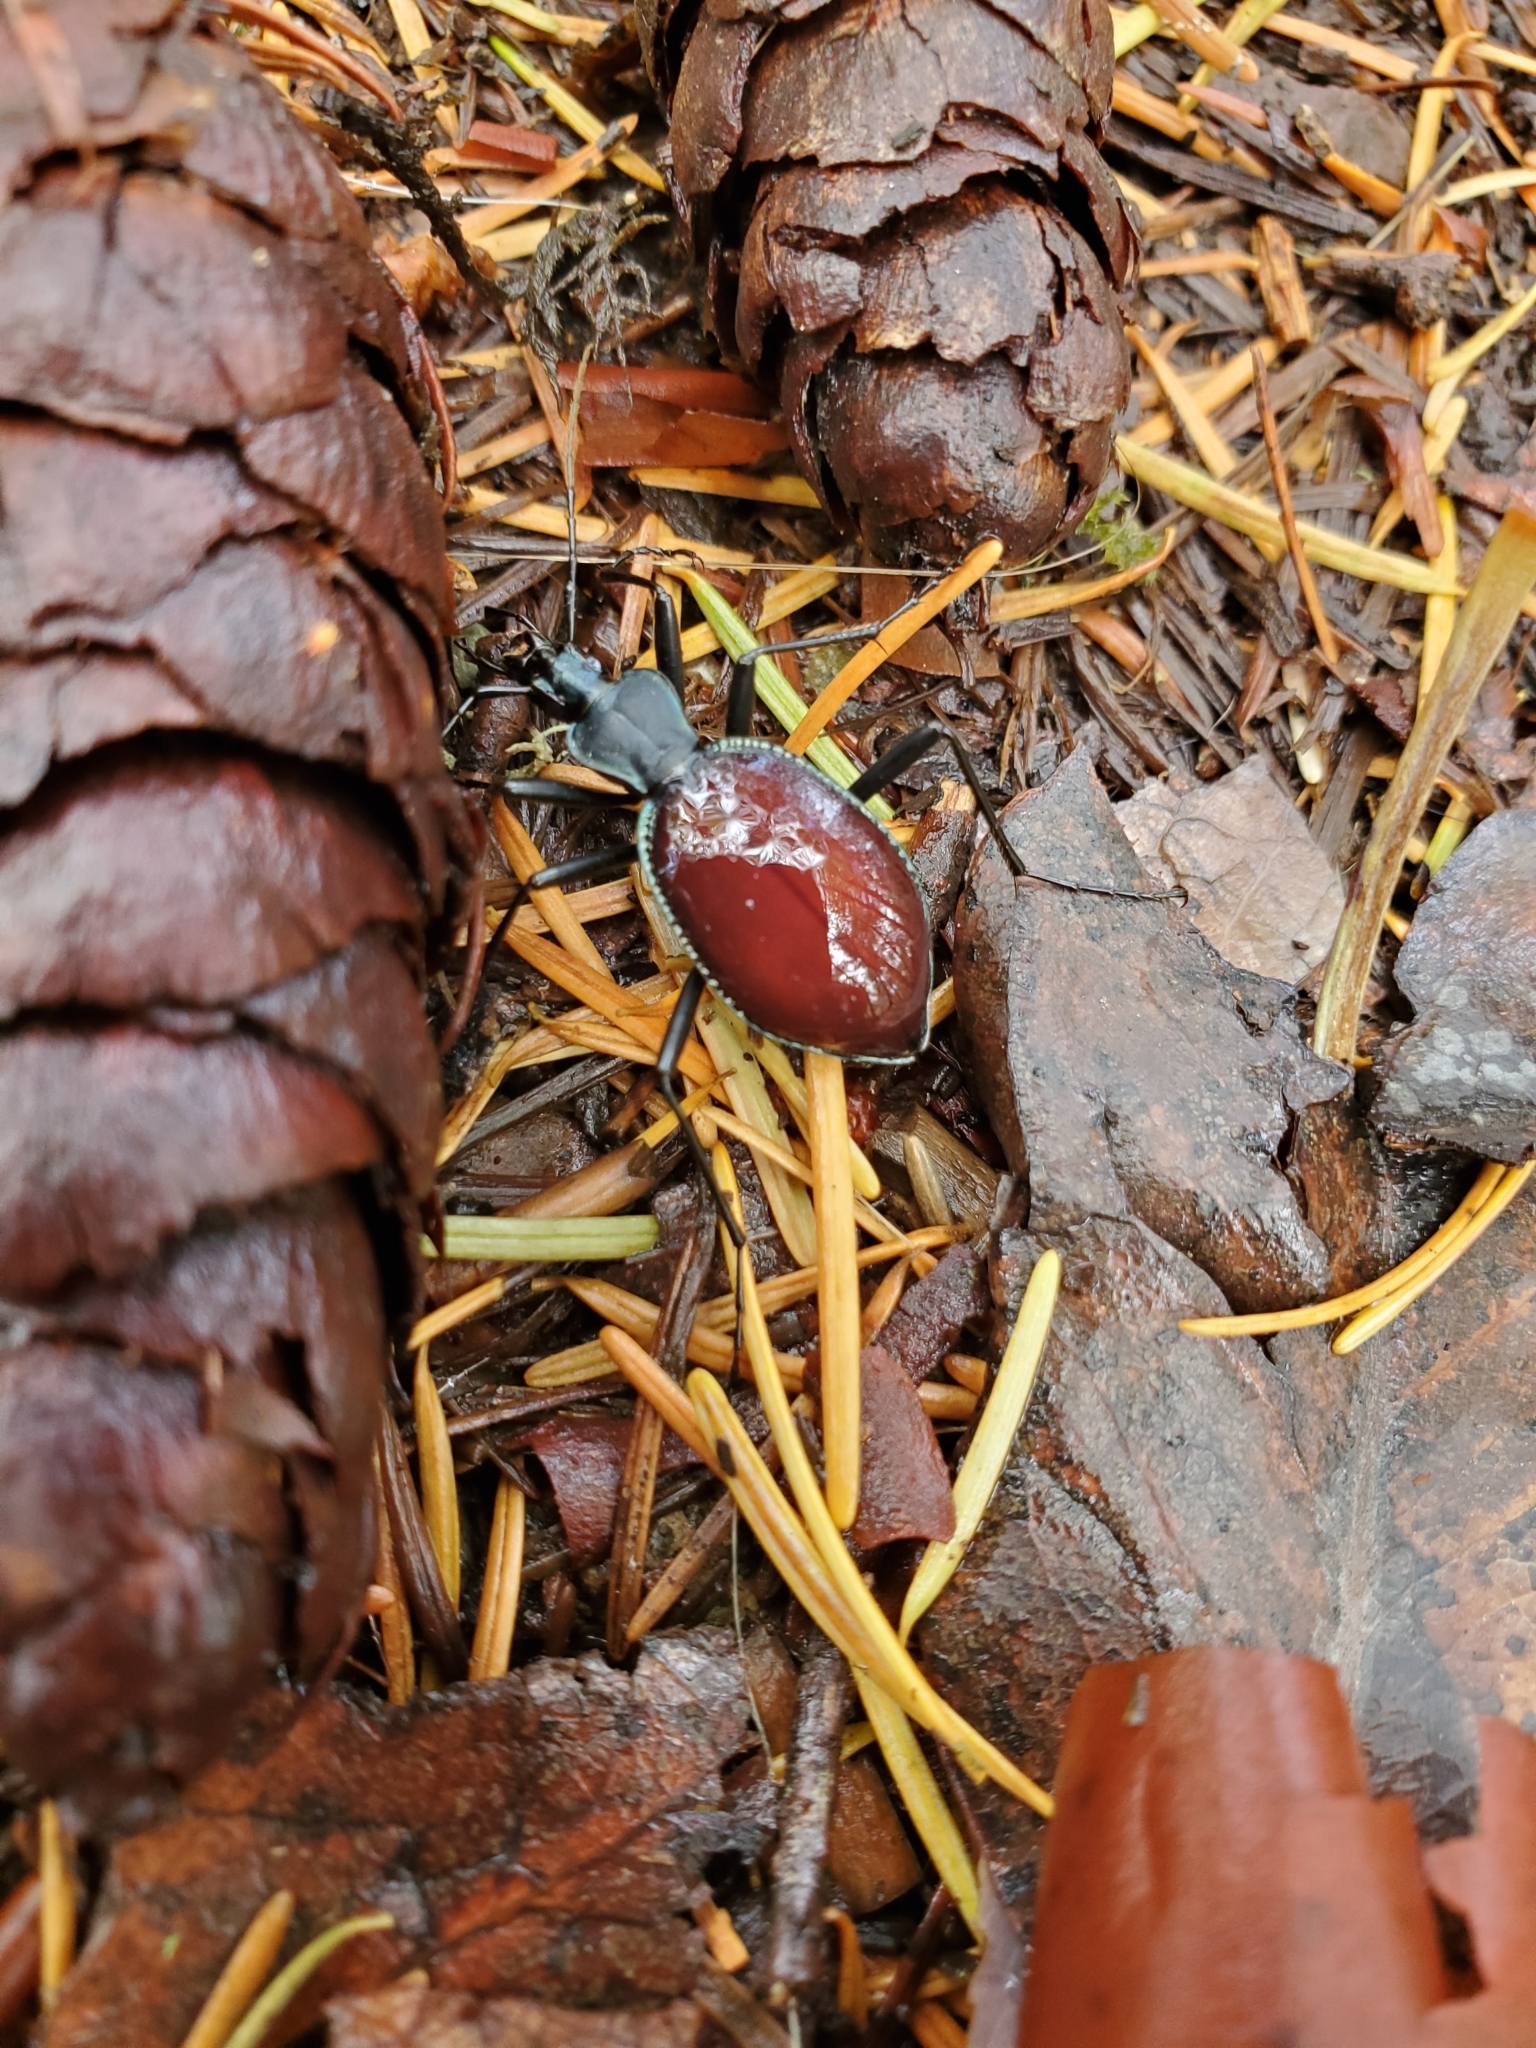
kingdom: Animalia
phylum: Arthropoda
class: Insecta
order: Coleoptera
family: Carabidae
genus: Scaphinotus
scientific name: Scaphinotus angusticollis
